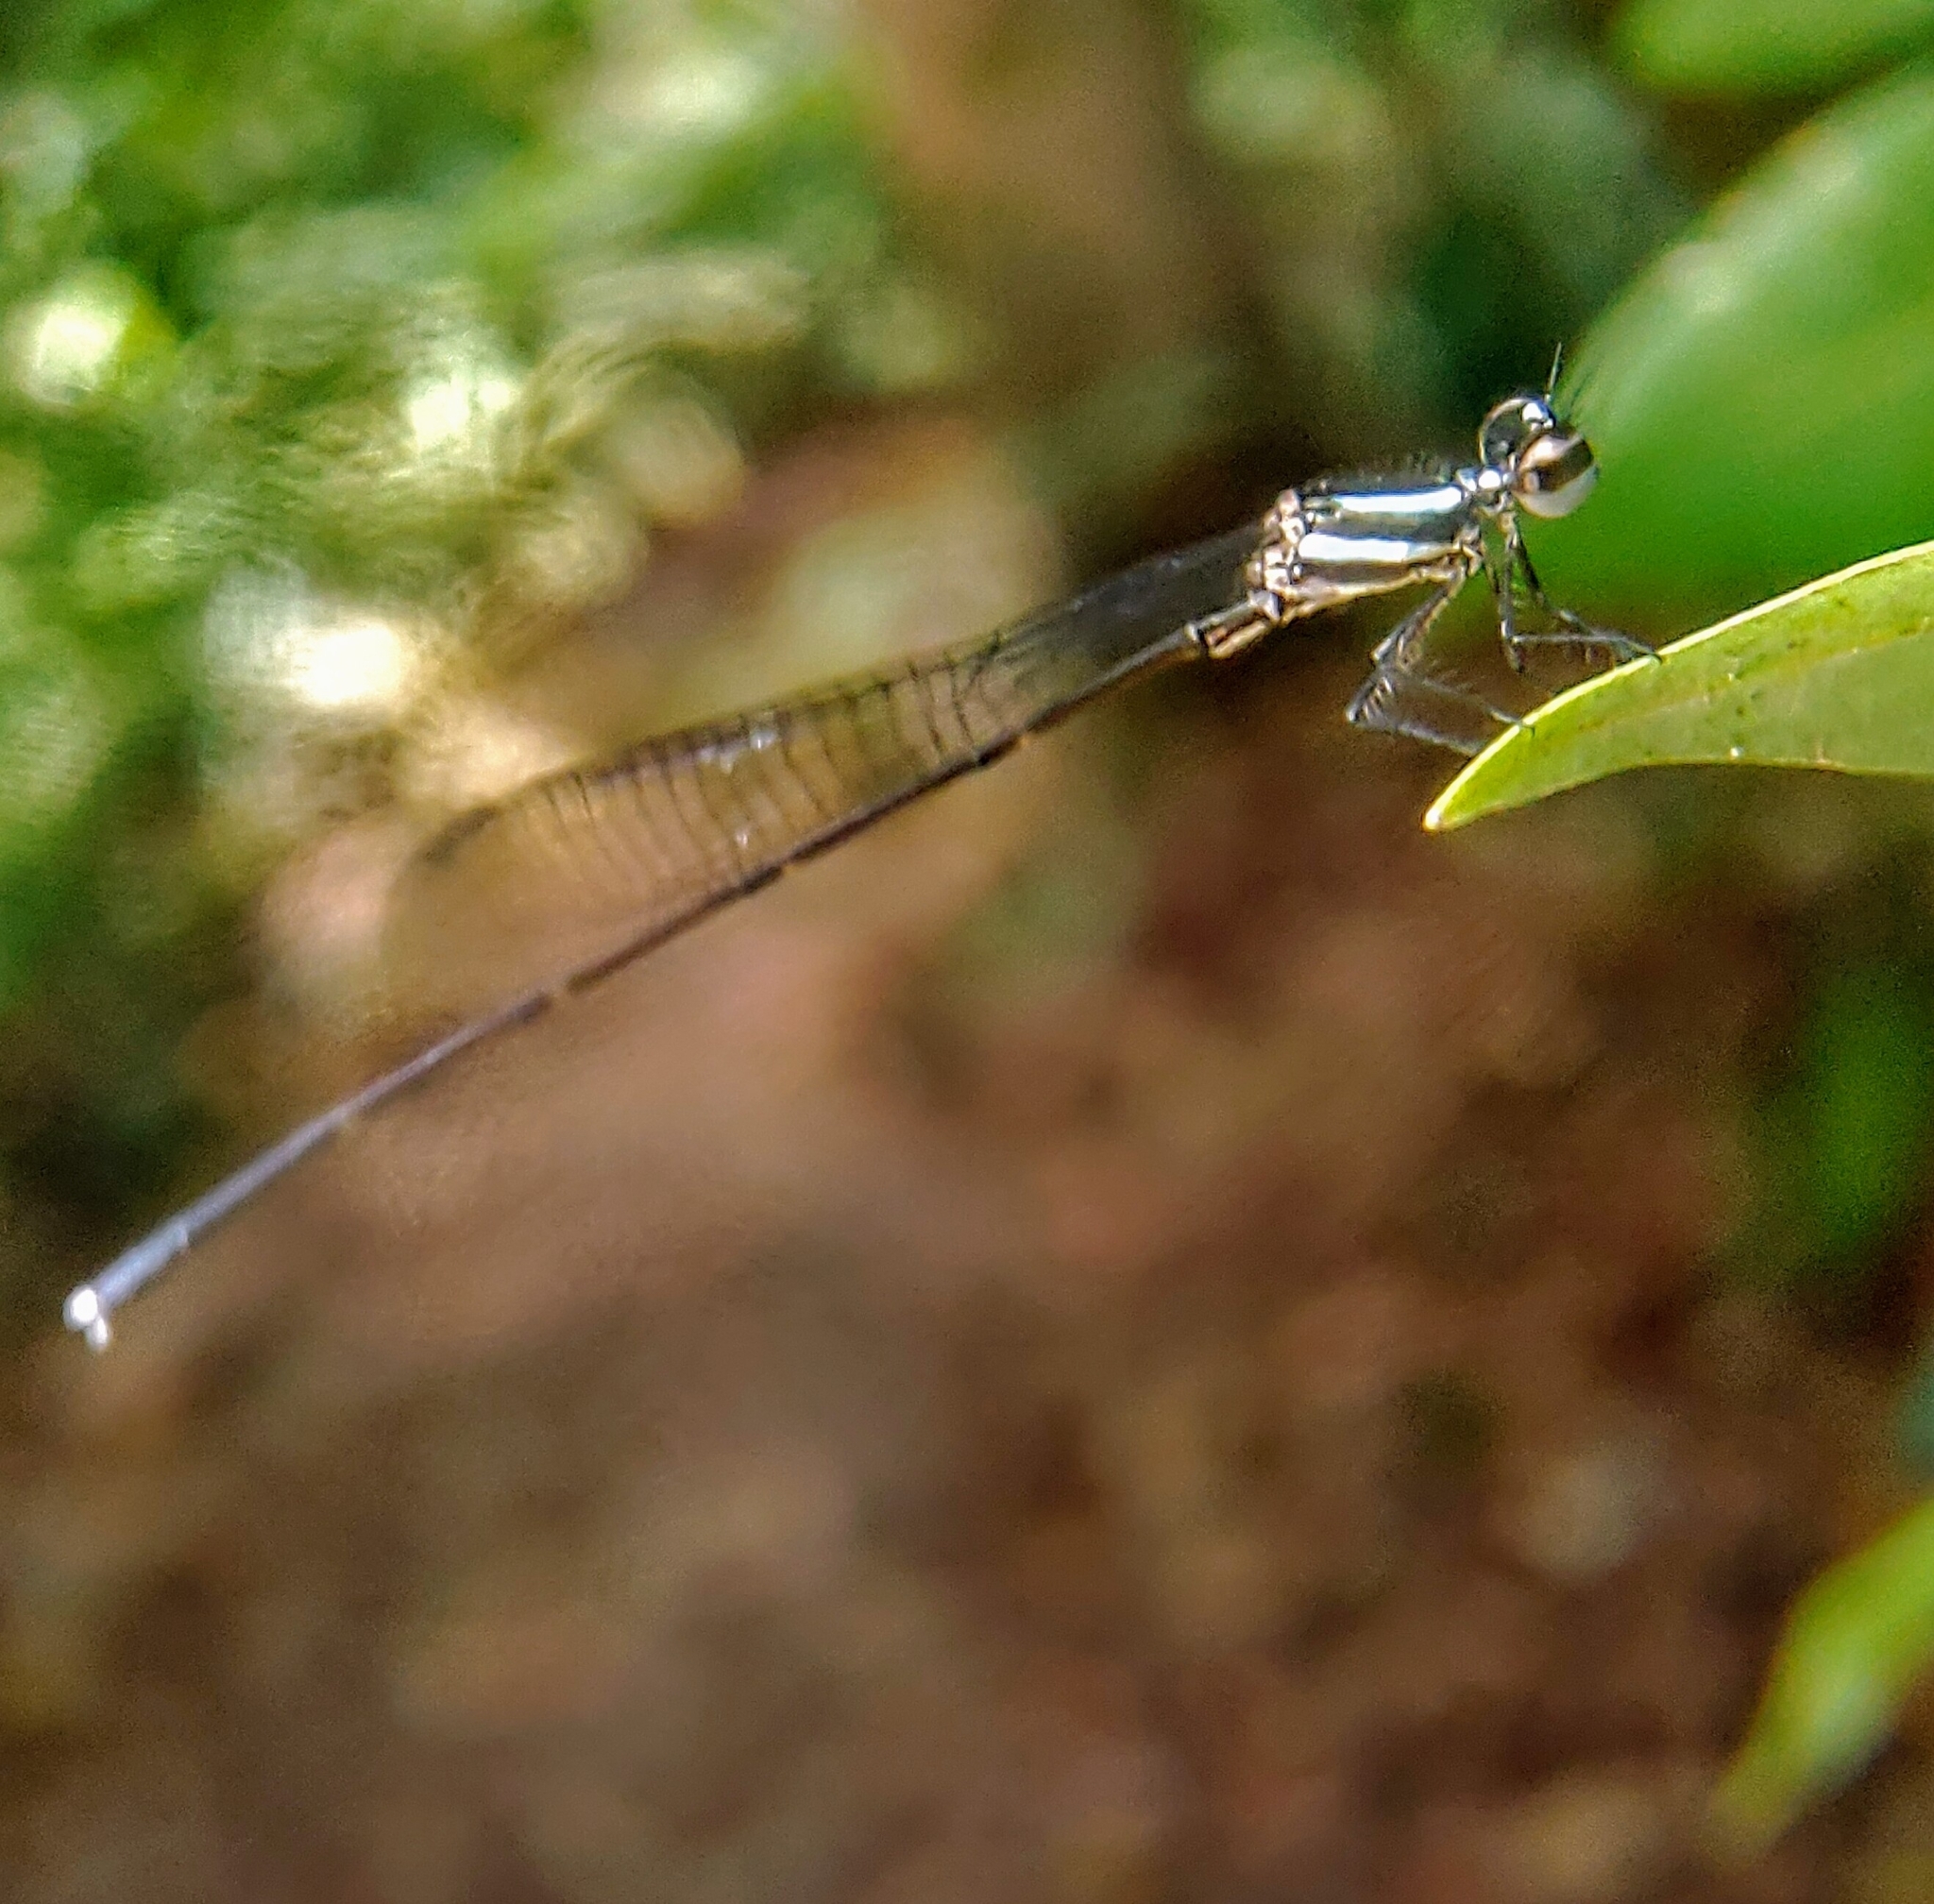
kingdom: Animalia
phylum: Arthropoda
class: Insecta
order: Odonata
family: Platycnemididae
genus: Prodasineura
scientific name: Prodasineura collaris
